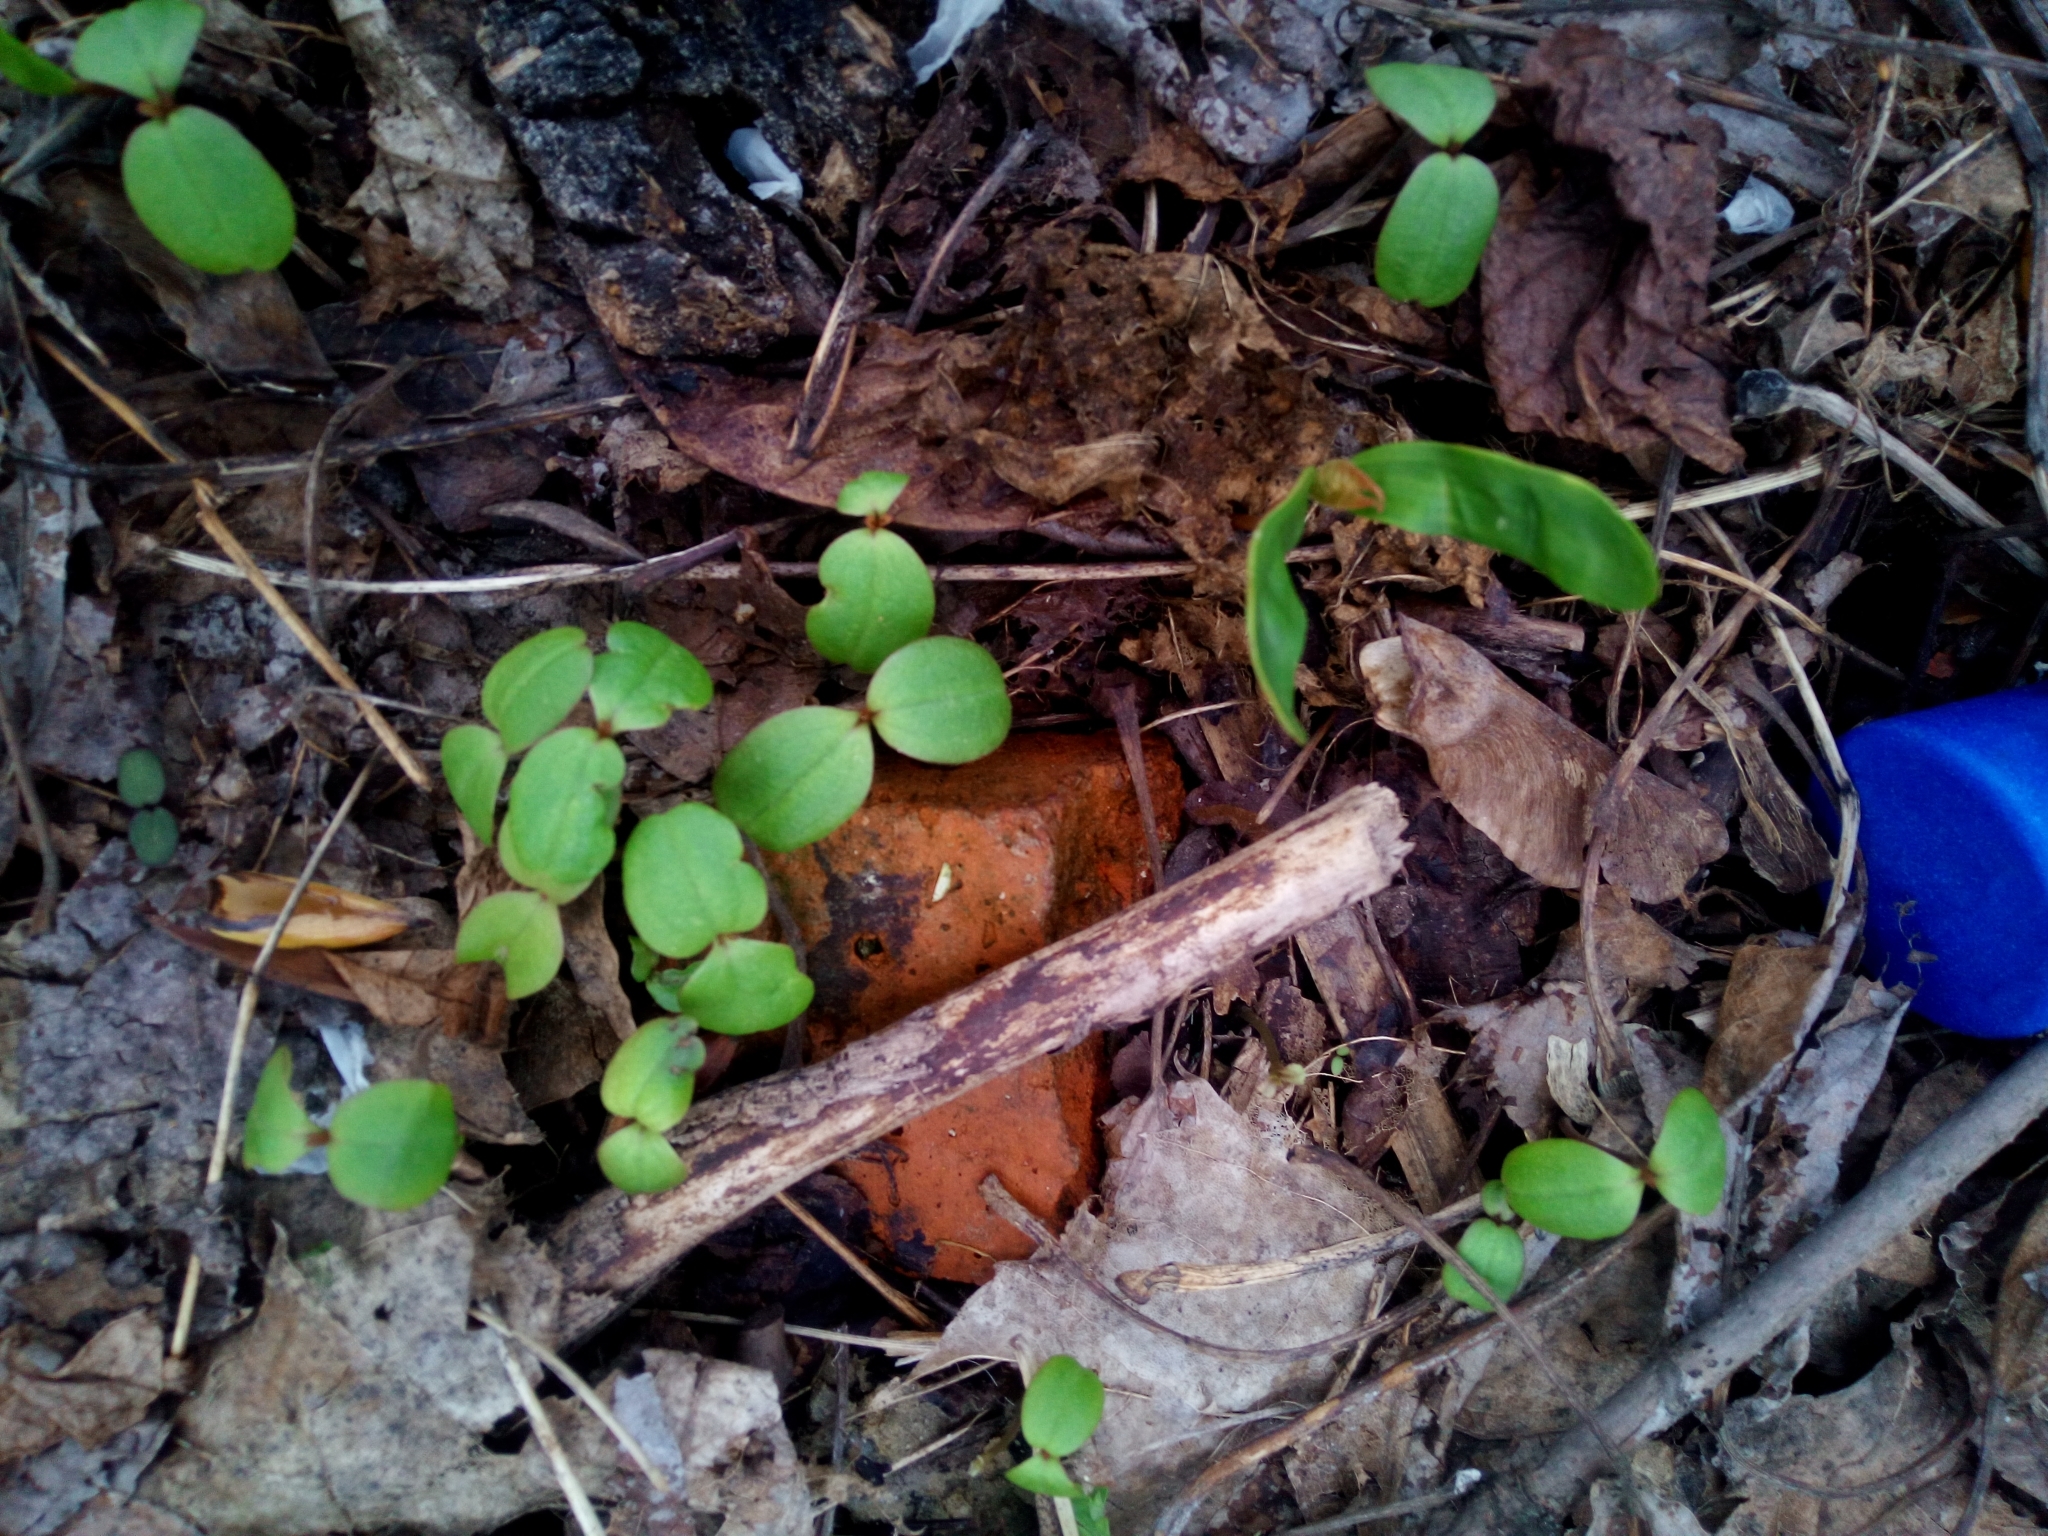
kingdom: Plantae
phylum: Tracheophyta
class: Magnoliopsida
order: Ericales
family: Balsaminaceae
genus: Impatiens
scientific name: Impatiens glandulifera
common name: Himalayan balsam
